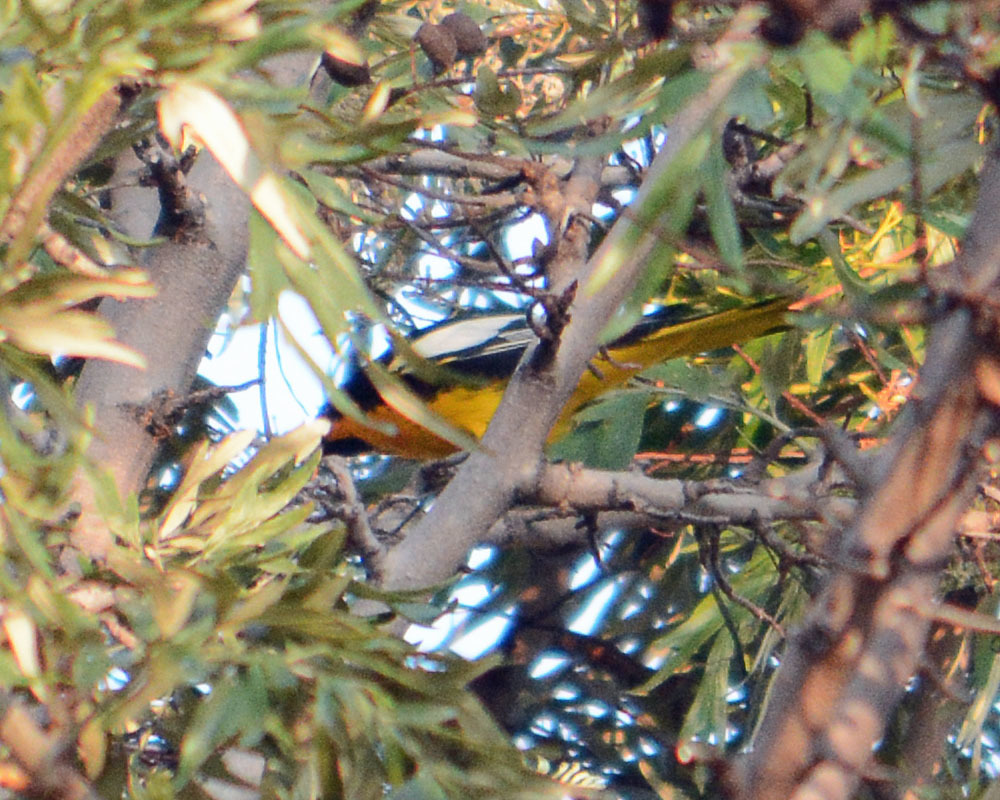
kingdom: Animalia
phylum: Chordata
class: Aves
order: Passeriformes
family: Icteridae
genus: Icterus
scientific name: Icterus abeillei
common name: Black-backed oriole
